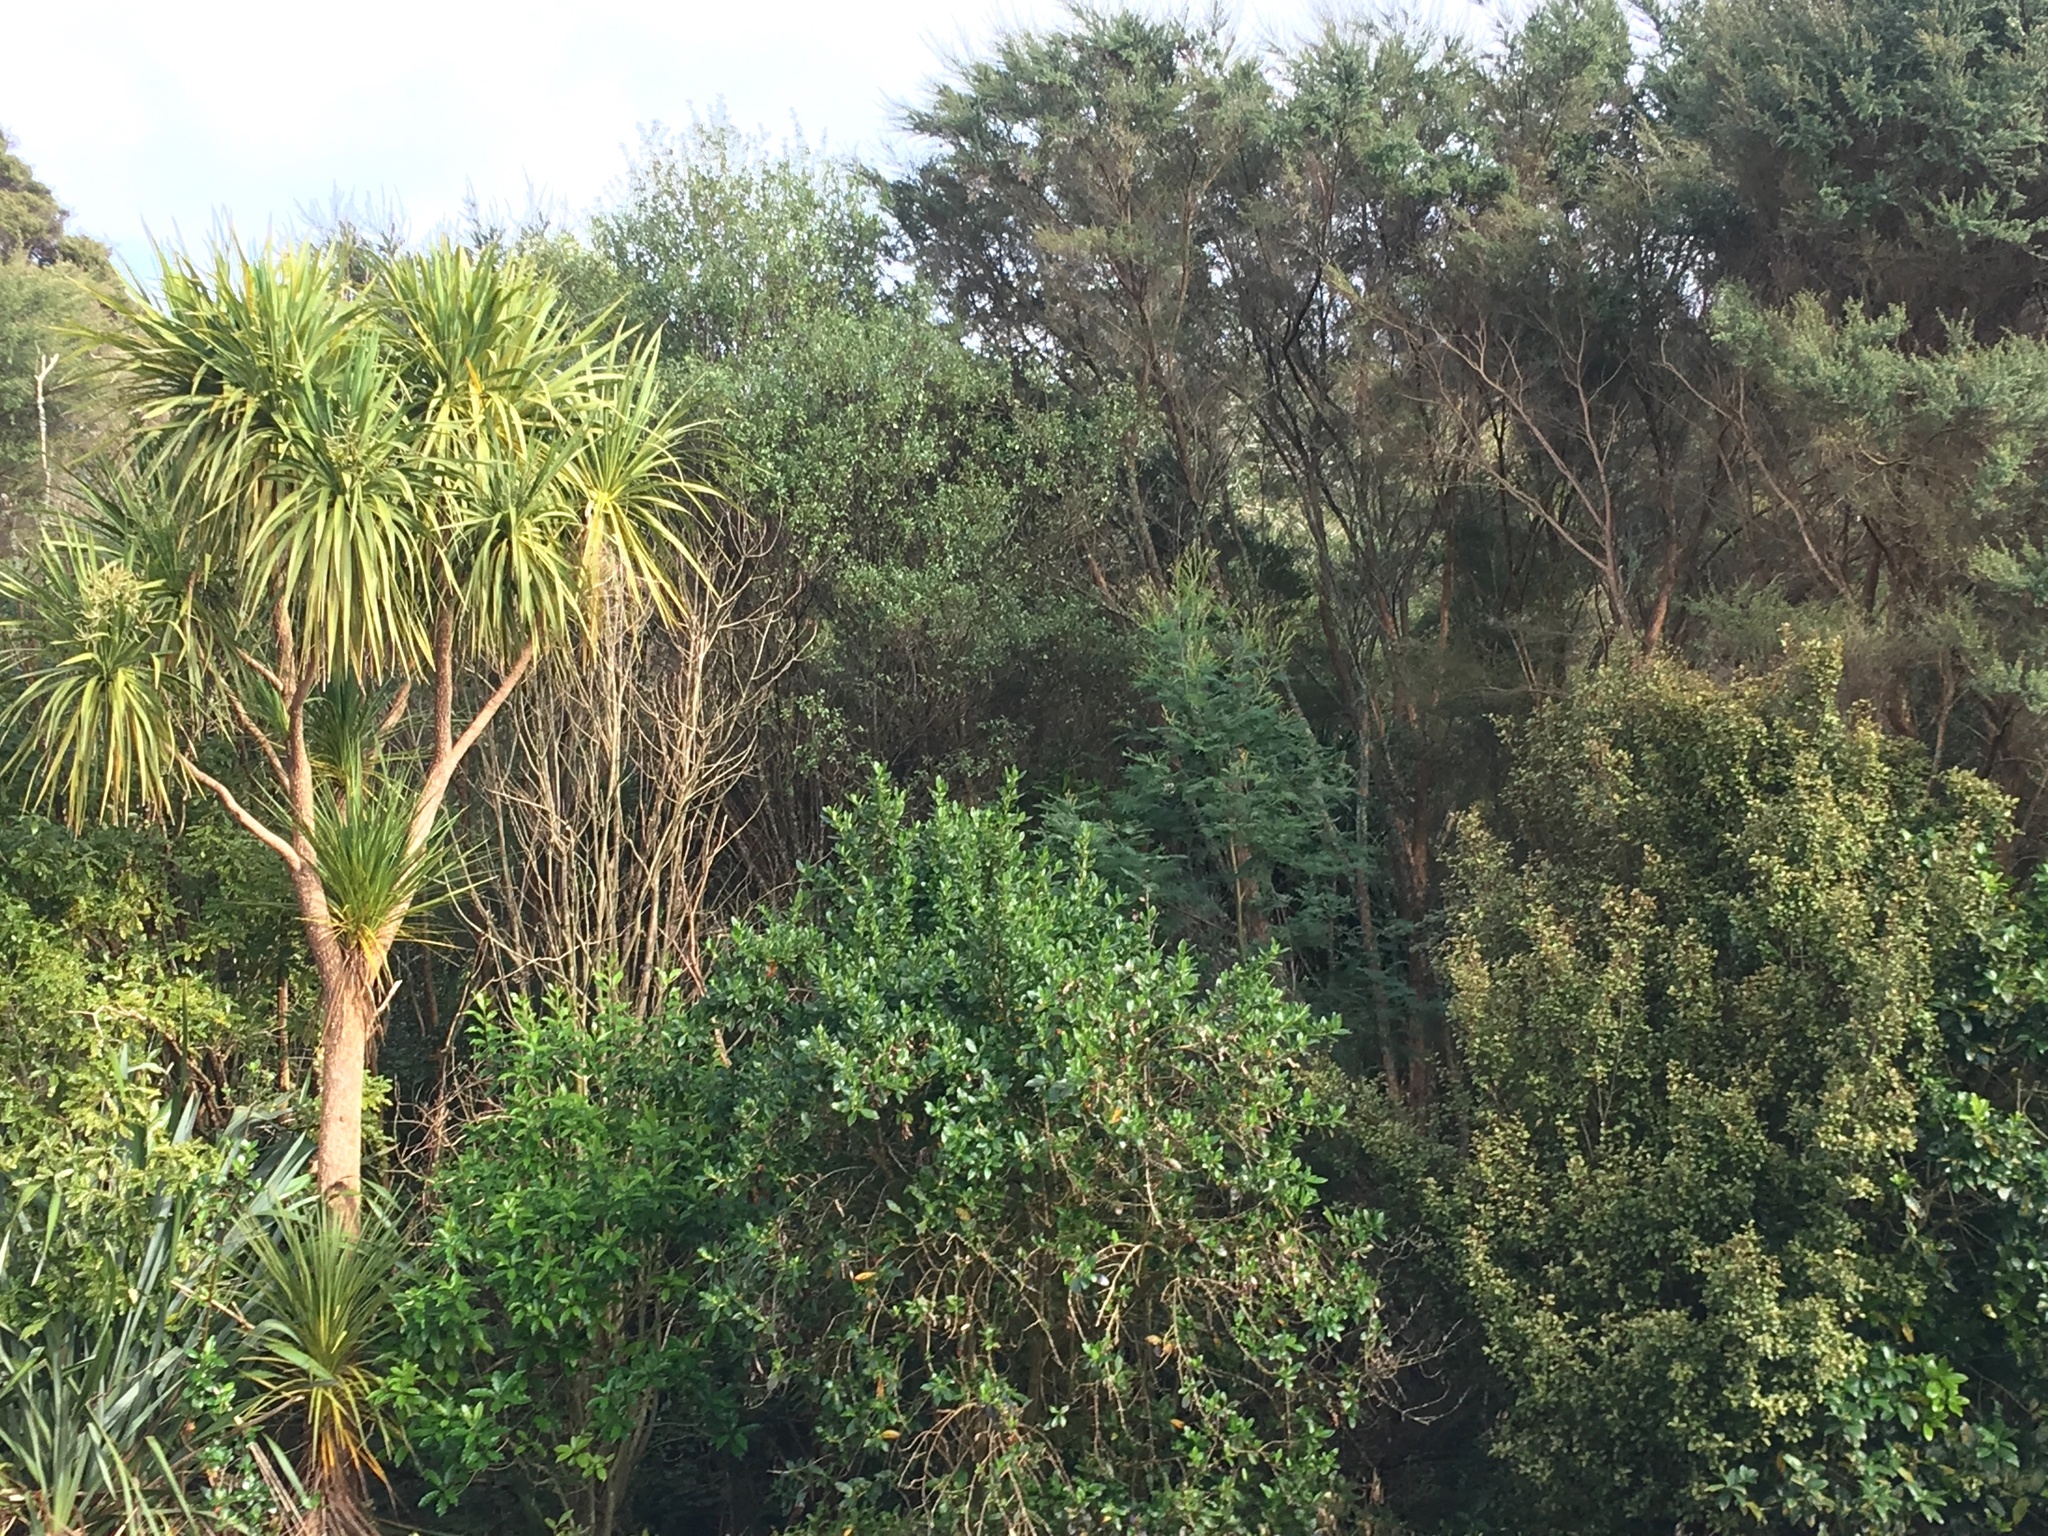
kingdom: Plantae
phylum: Tracheophyta
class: Magnoliopsida
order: Ericales
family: Primulaceae
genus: Myrsine
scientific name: Myrsine australis
